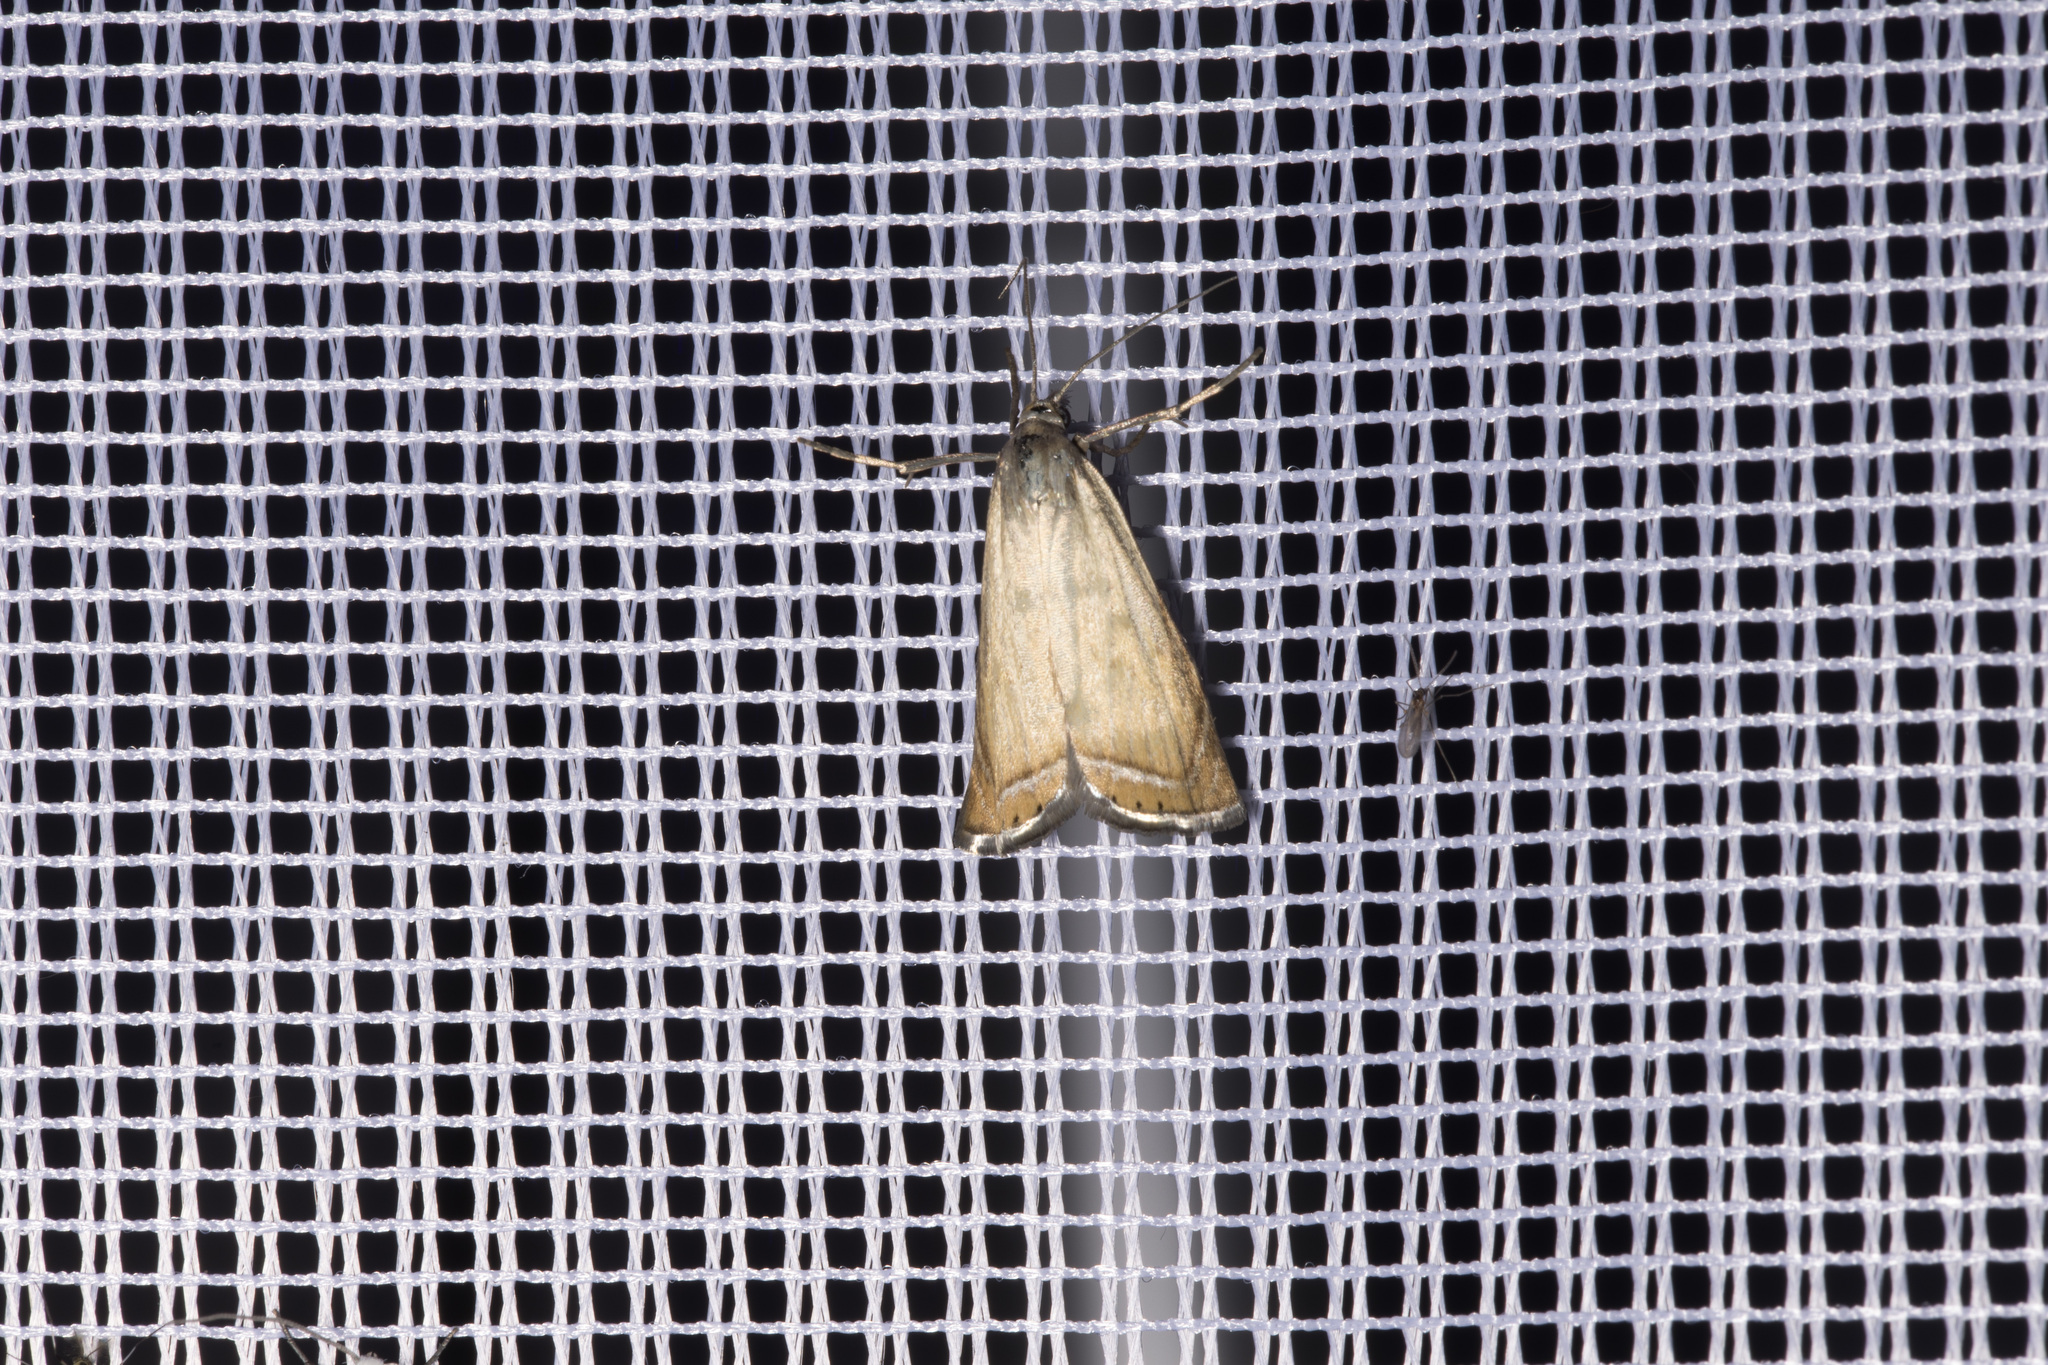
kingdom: Animalia
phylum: Arthropoda
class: Insecta
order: Lepidoptera
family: Crambidae
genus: Chrysoteuchia
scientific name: Chrysoteuchia culmella
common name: Garden grass-veneer
